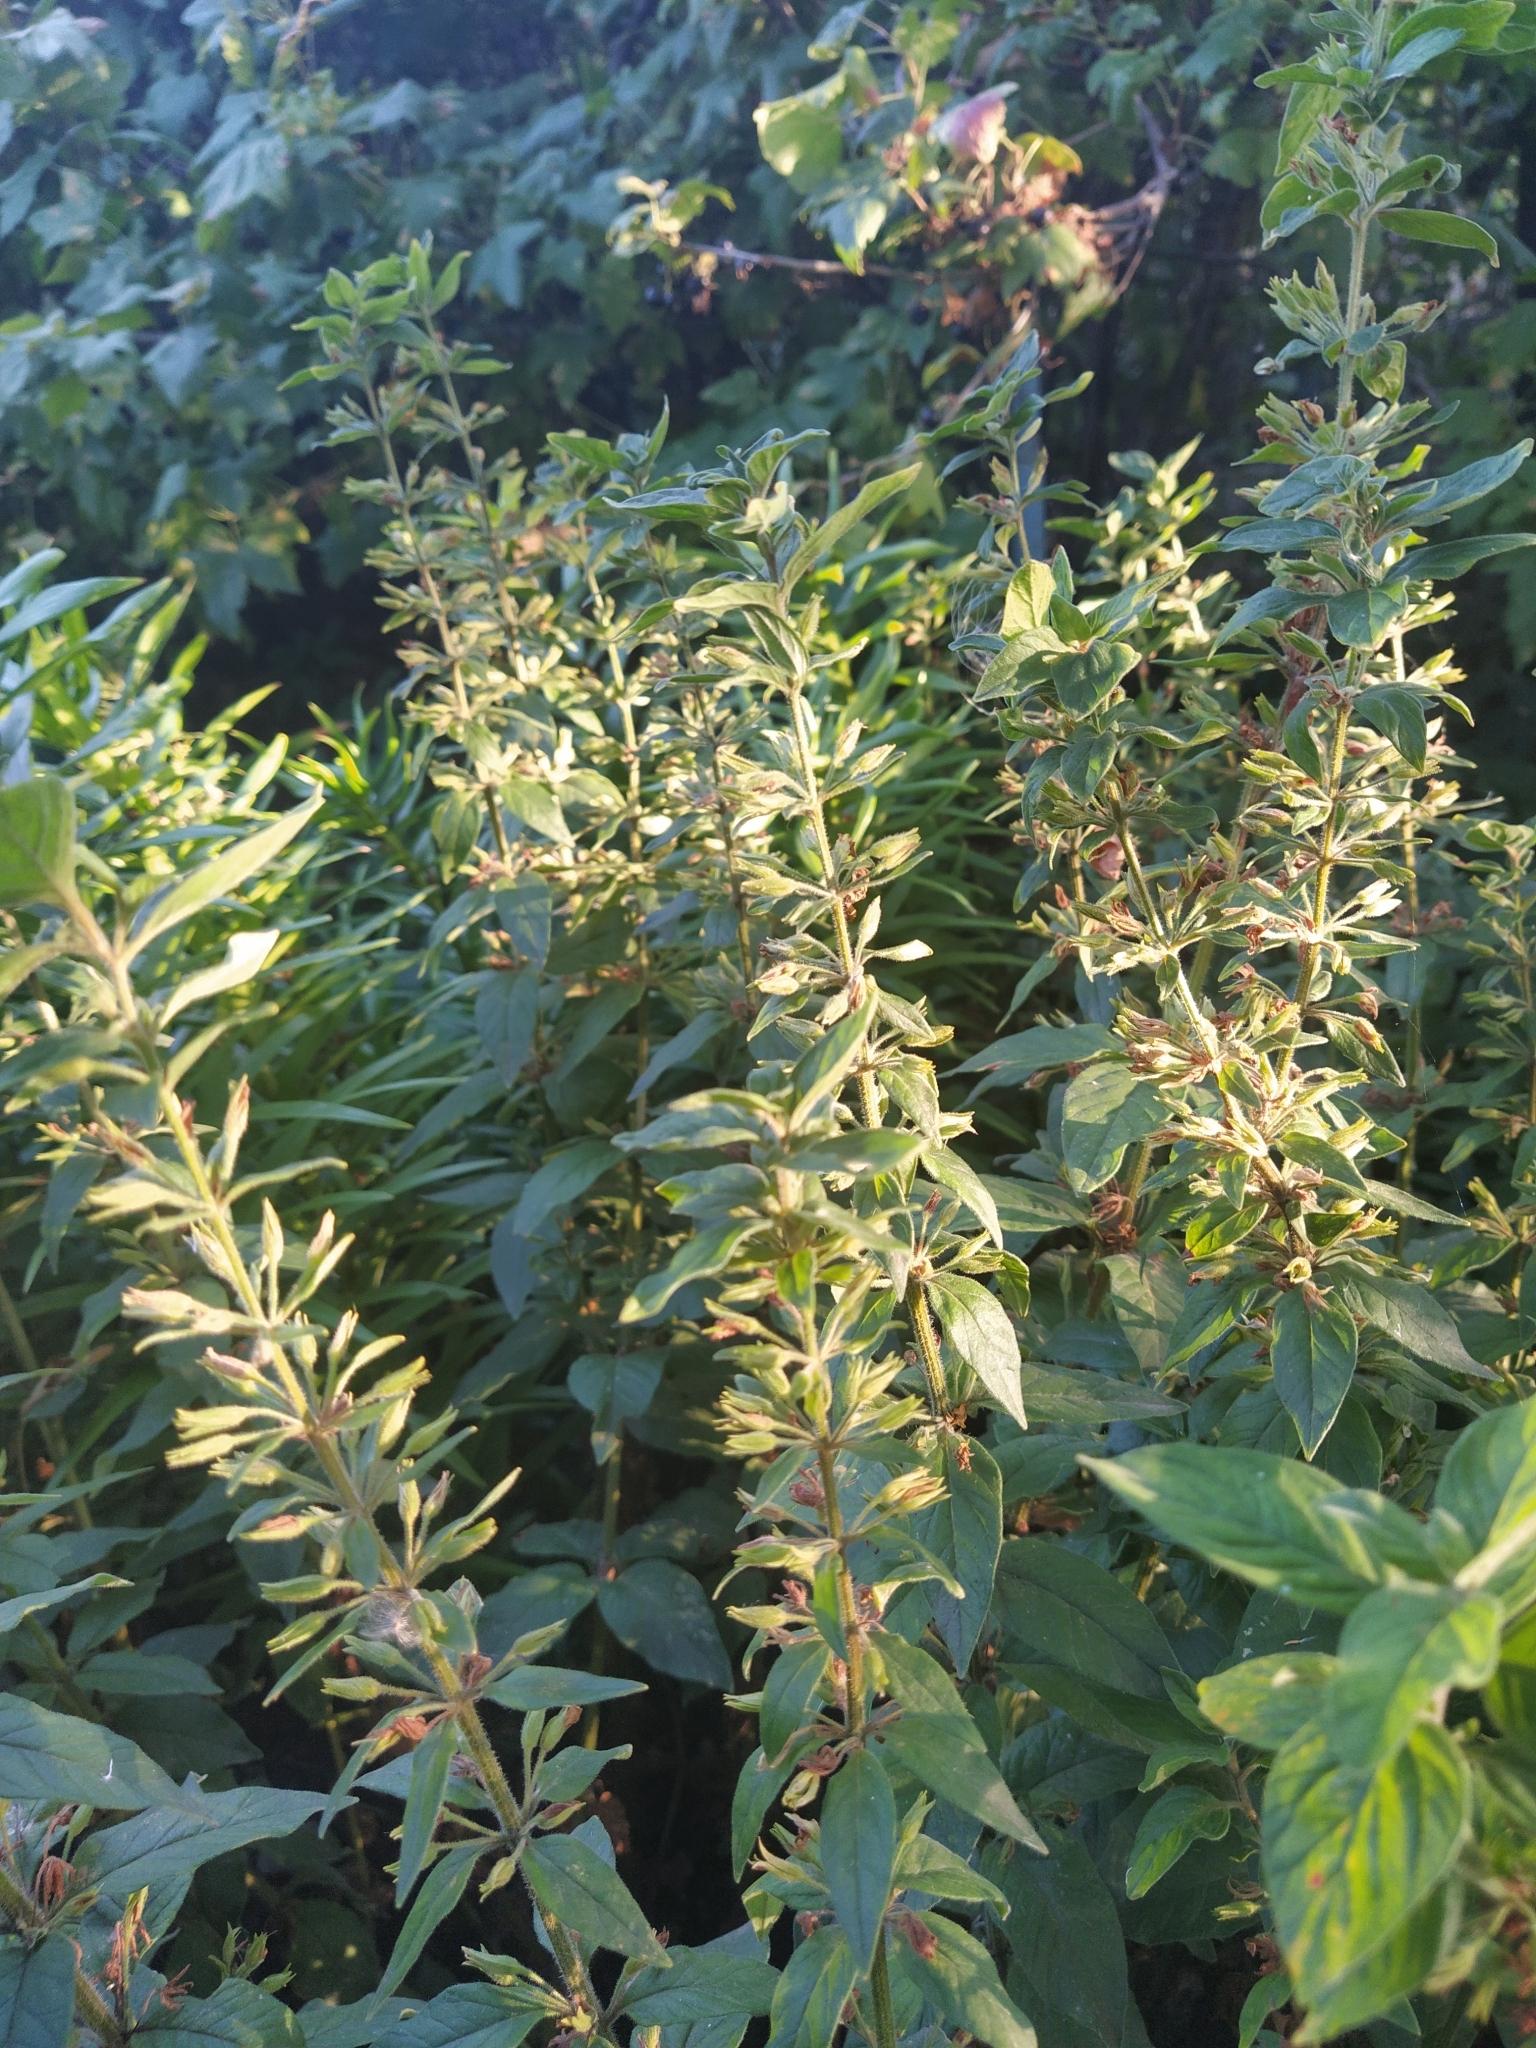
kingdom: Plantae
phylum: Tracheophyta
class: Magnoliopsida
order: Ericales
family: Primulaceae
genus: Lysimachia
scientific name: Lysimachia punctata
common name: Dotted loosestrife
